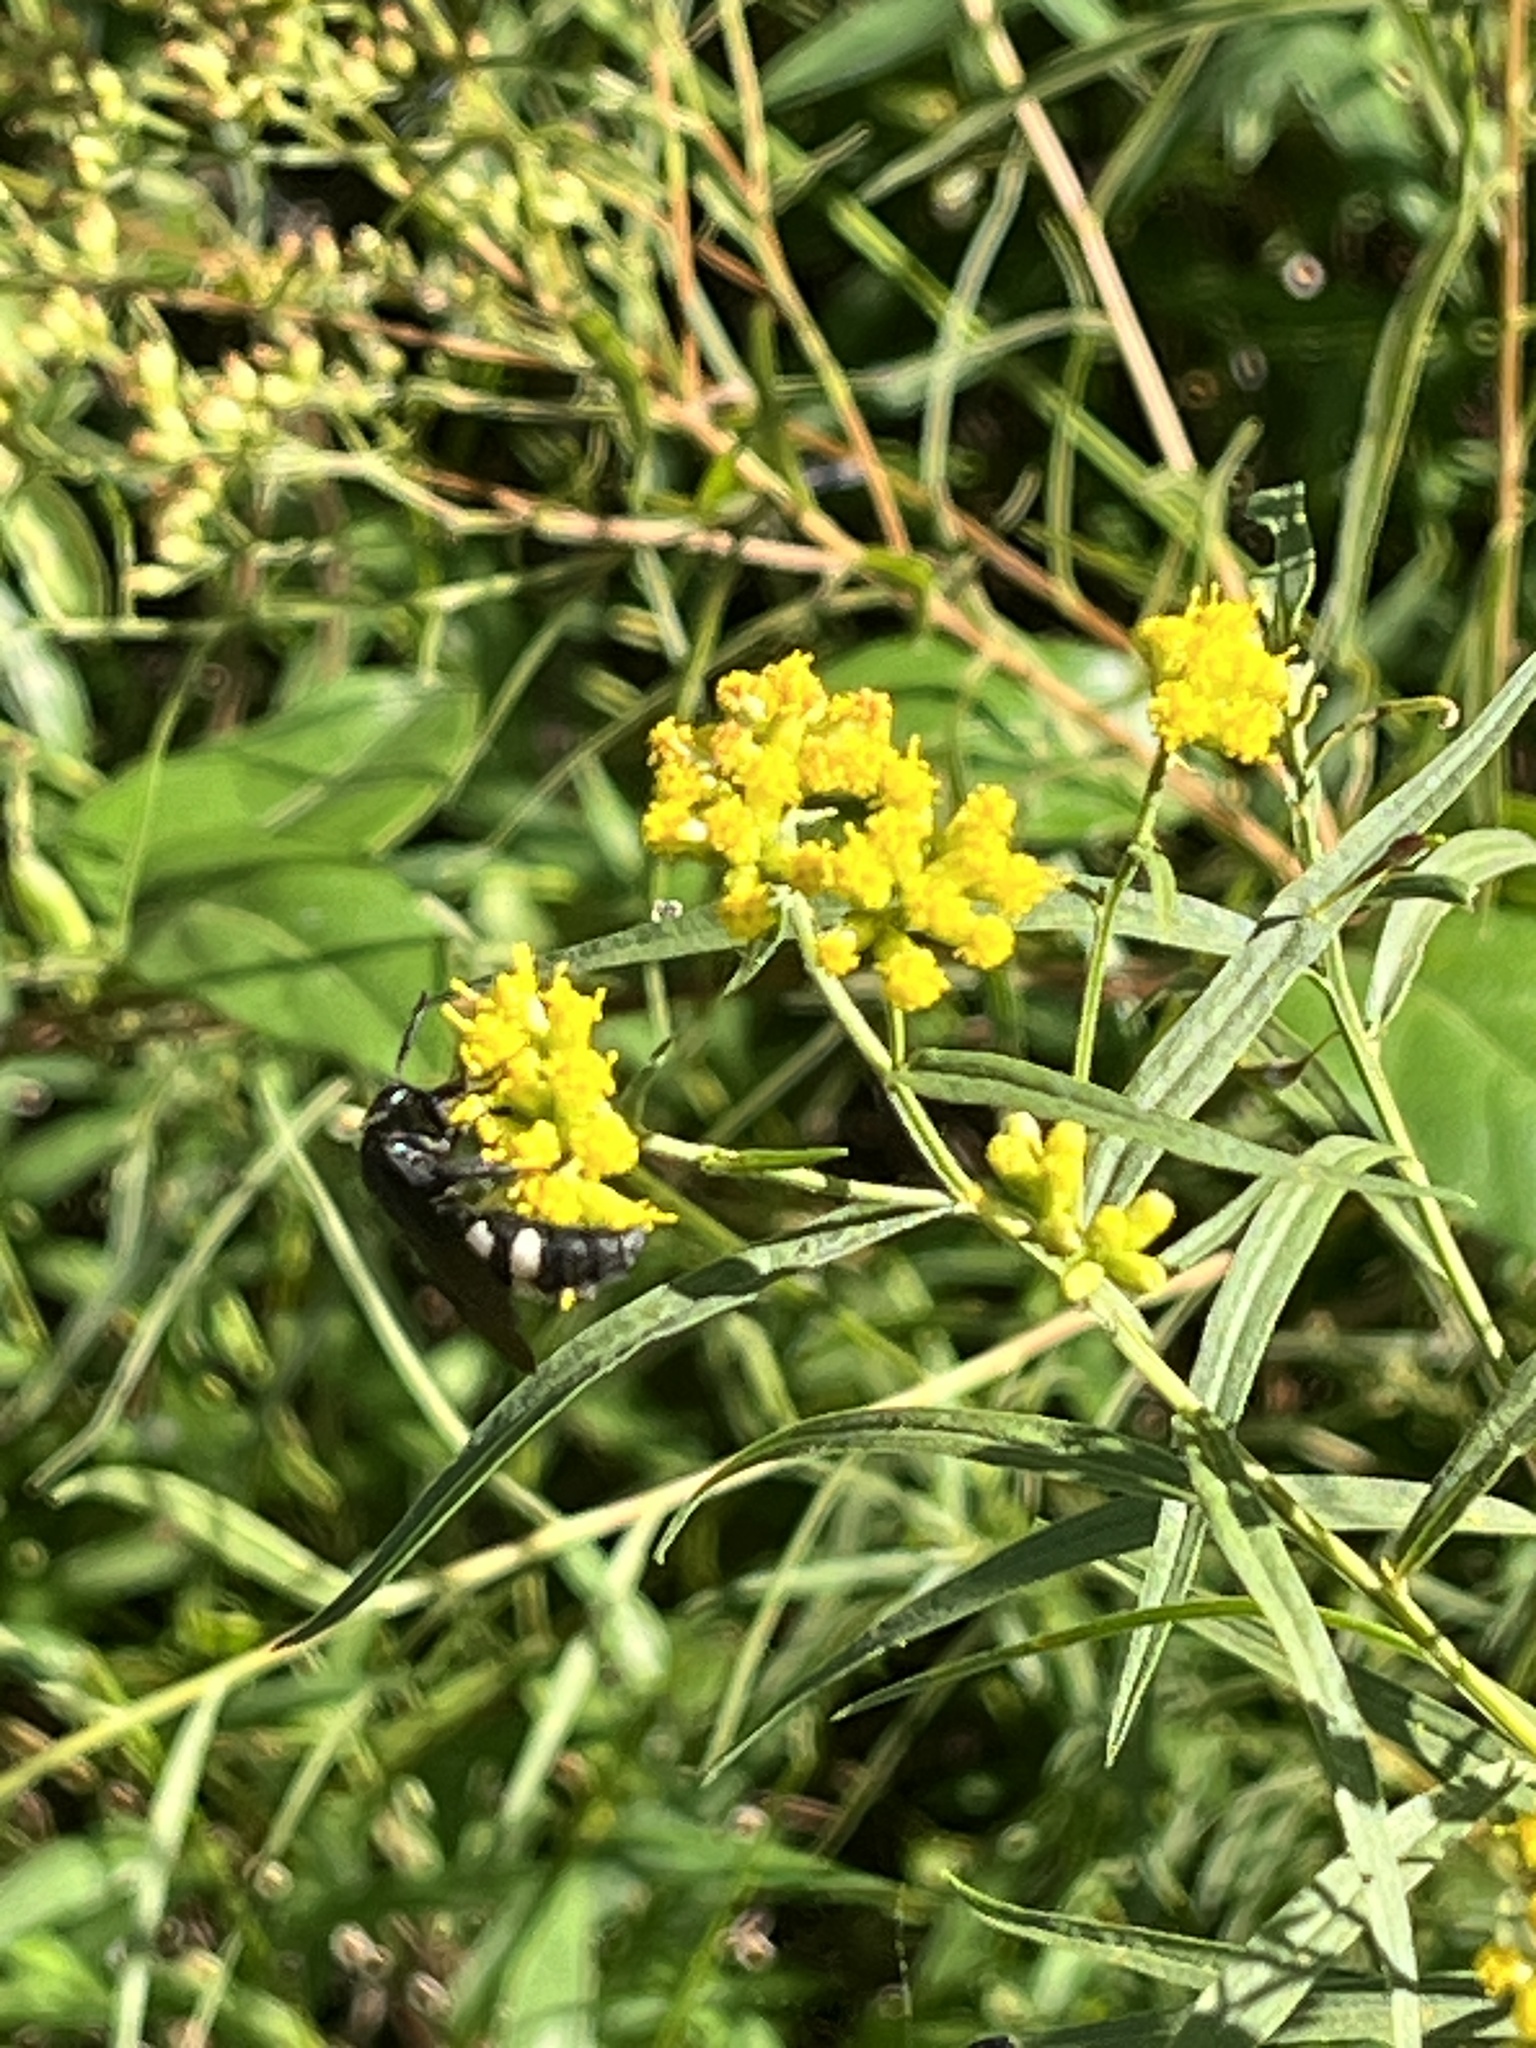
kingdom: Animalia
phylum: Arthropoda
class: Insecta
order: Hymenoptera
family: Scoliidae
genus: Scolia
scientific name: Scolia bicincta
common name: Double-banded scoliid wasp
